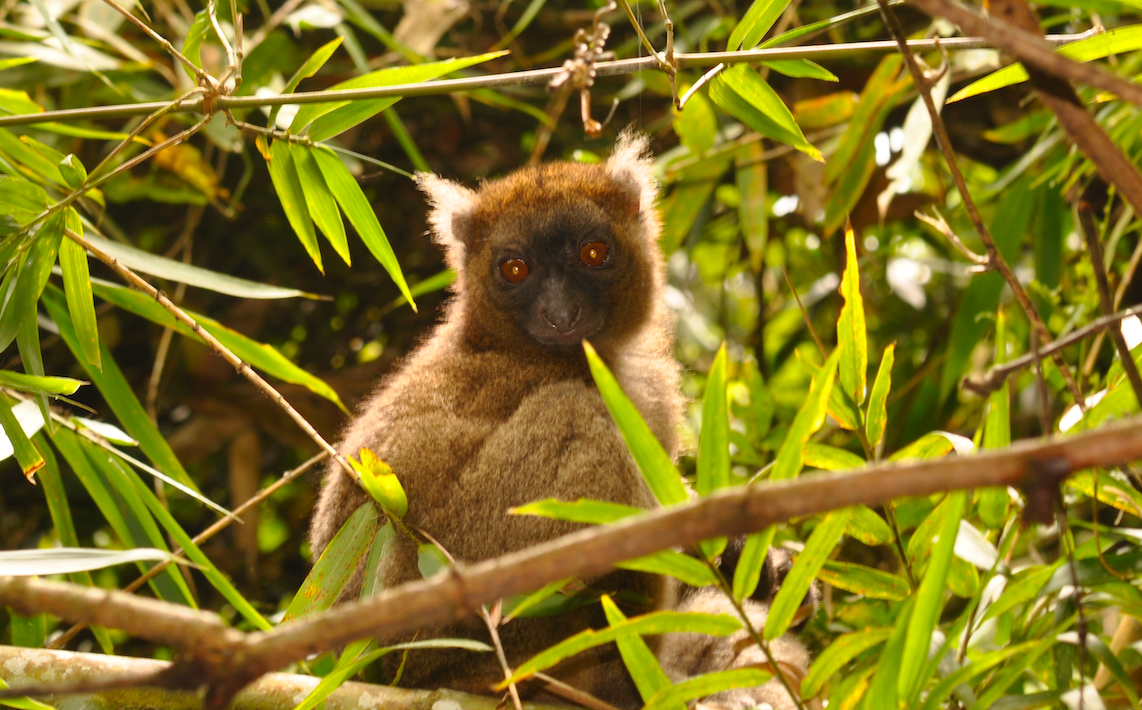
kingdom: Animalia
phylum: Chordata
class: Mammalia
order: Primates
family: Lemuridae
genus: Prolemur
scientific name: Prolemur simus
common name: Greater bamboo lemur
